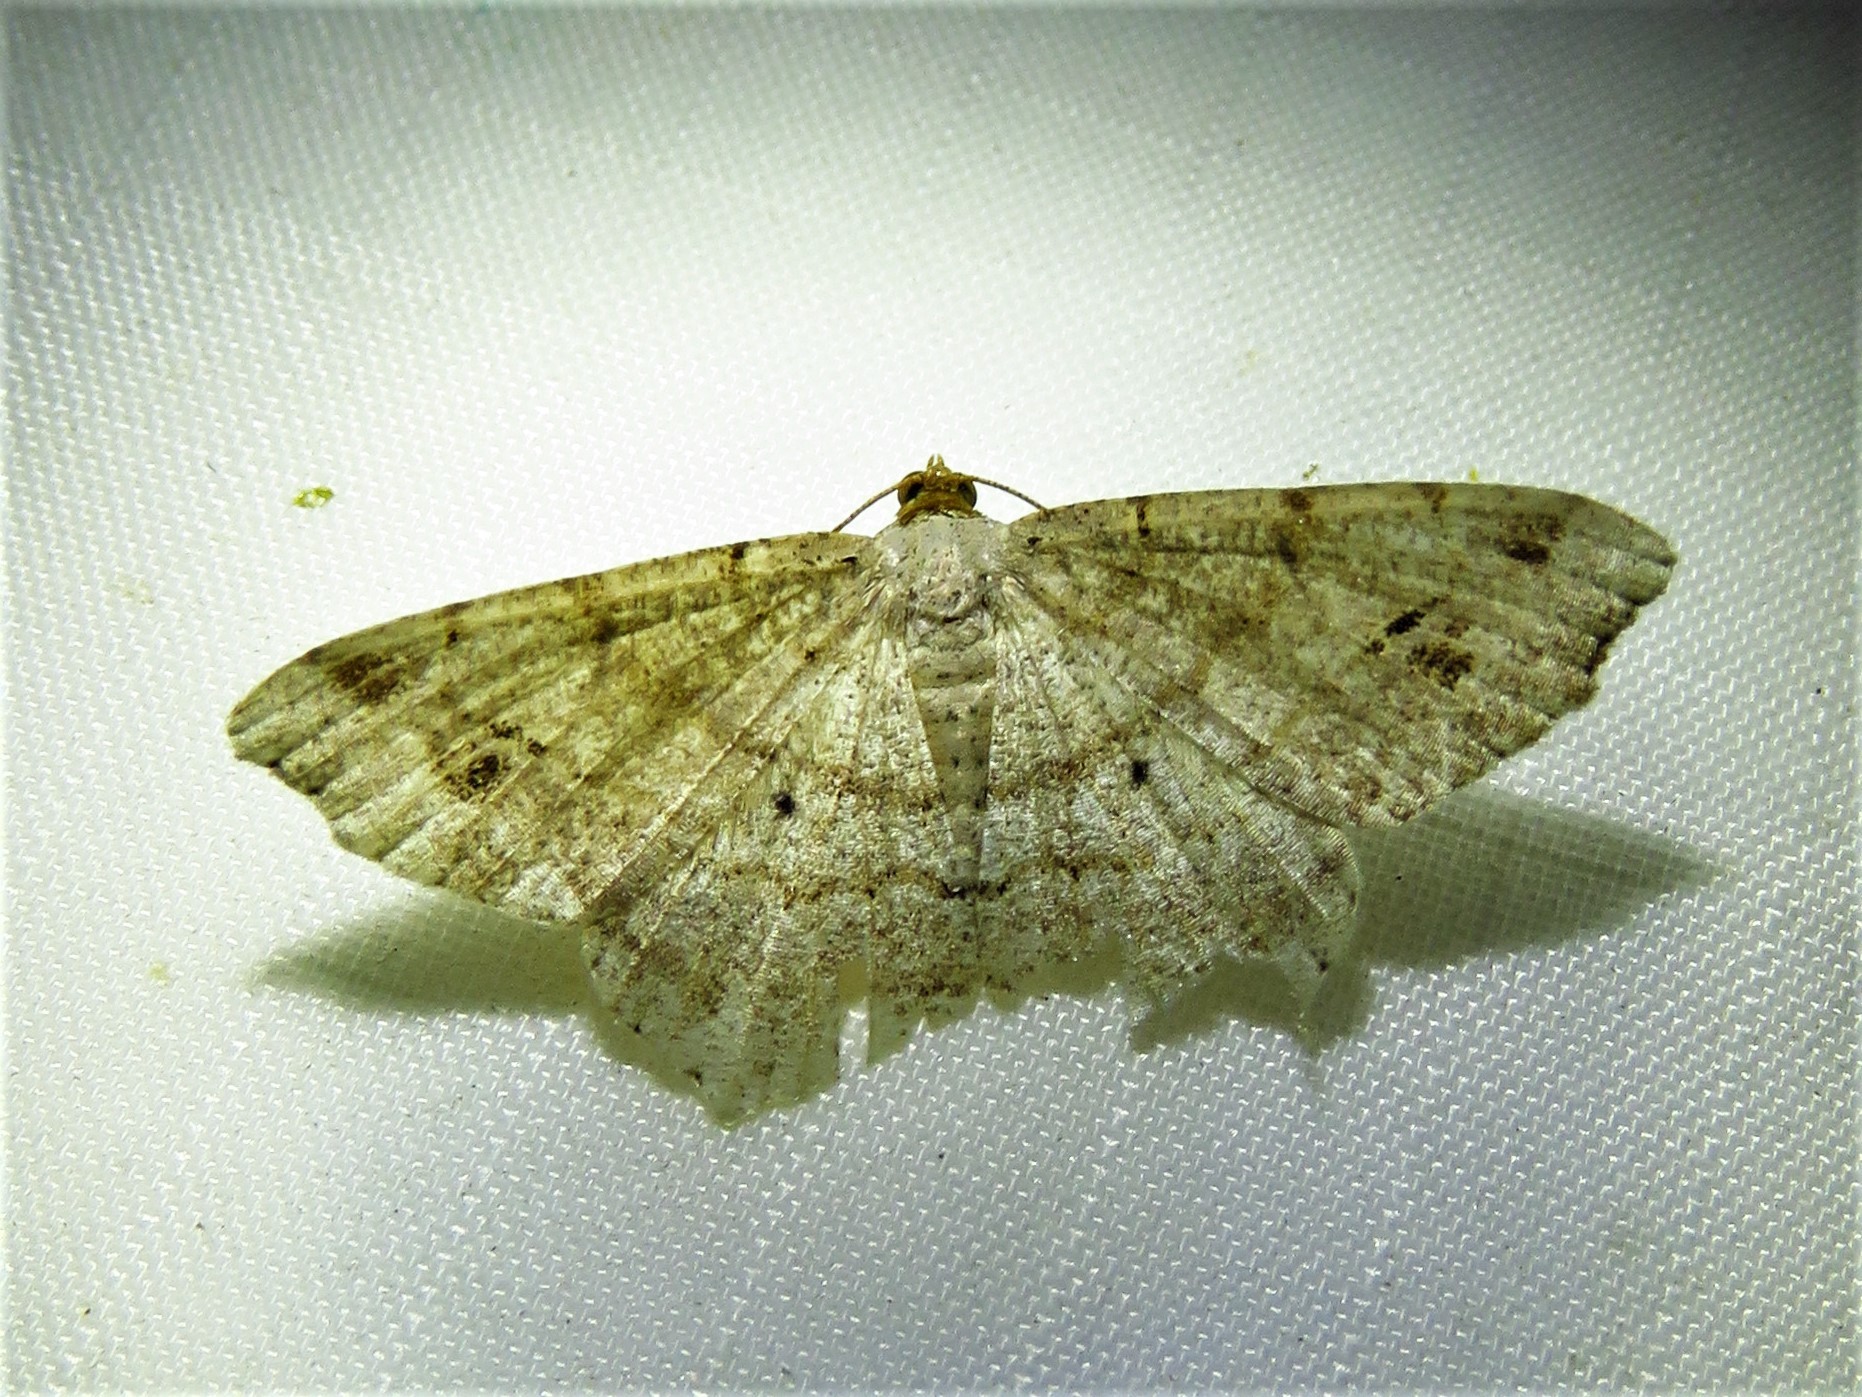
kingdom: Animalia
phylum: Arthropoda
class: Insecta
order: Lepidoptera
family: Geometridae
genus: Macaria
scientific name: Macaria abydata
